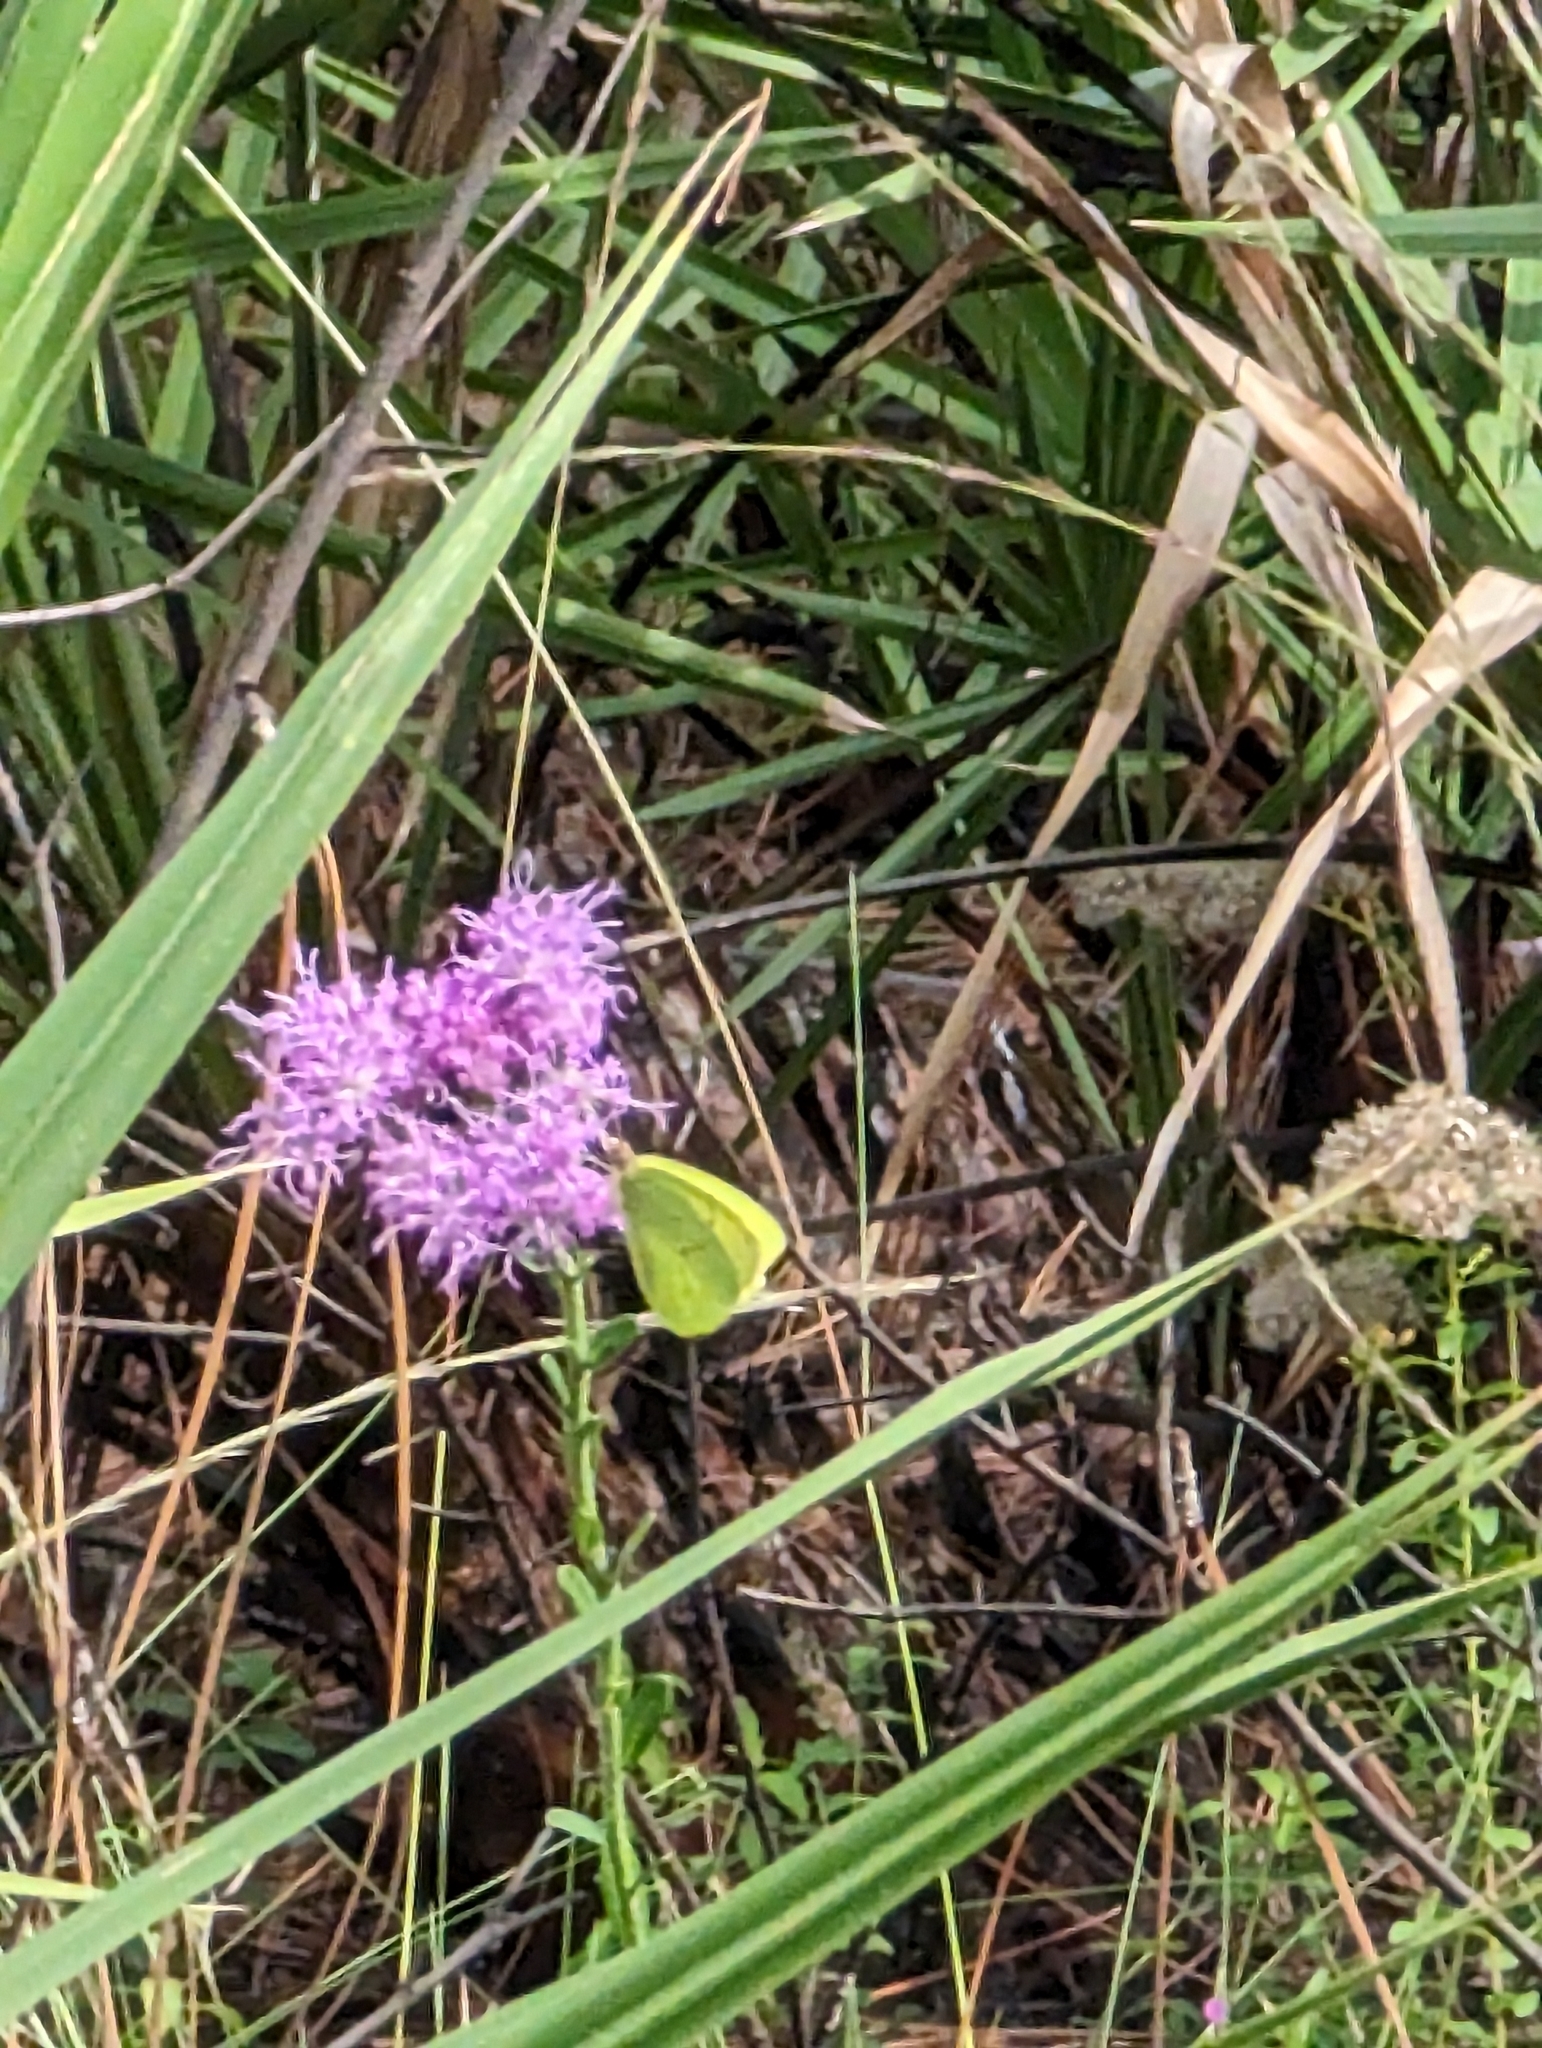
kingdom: Animalia
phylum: Arthropoda
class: Insecta
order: Lepidoptera
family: Pieridae
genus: Phoebis
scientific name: Phoebis sennae
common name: Cloudless sulphur
